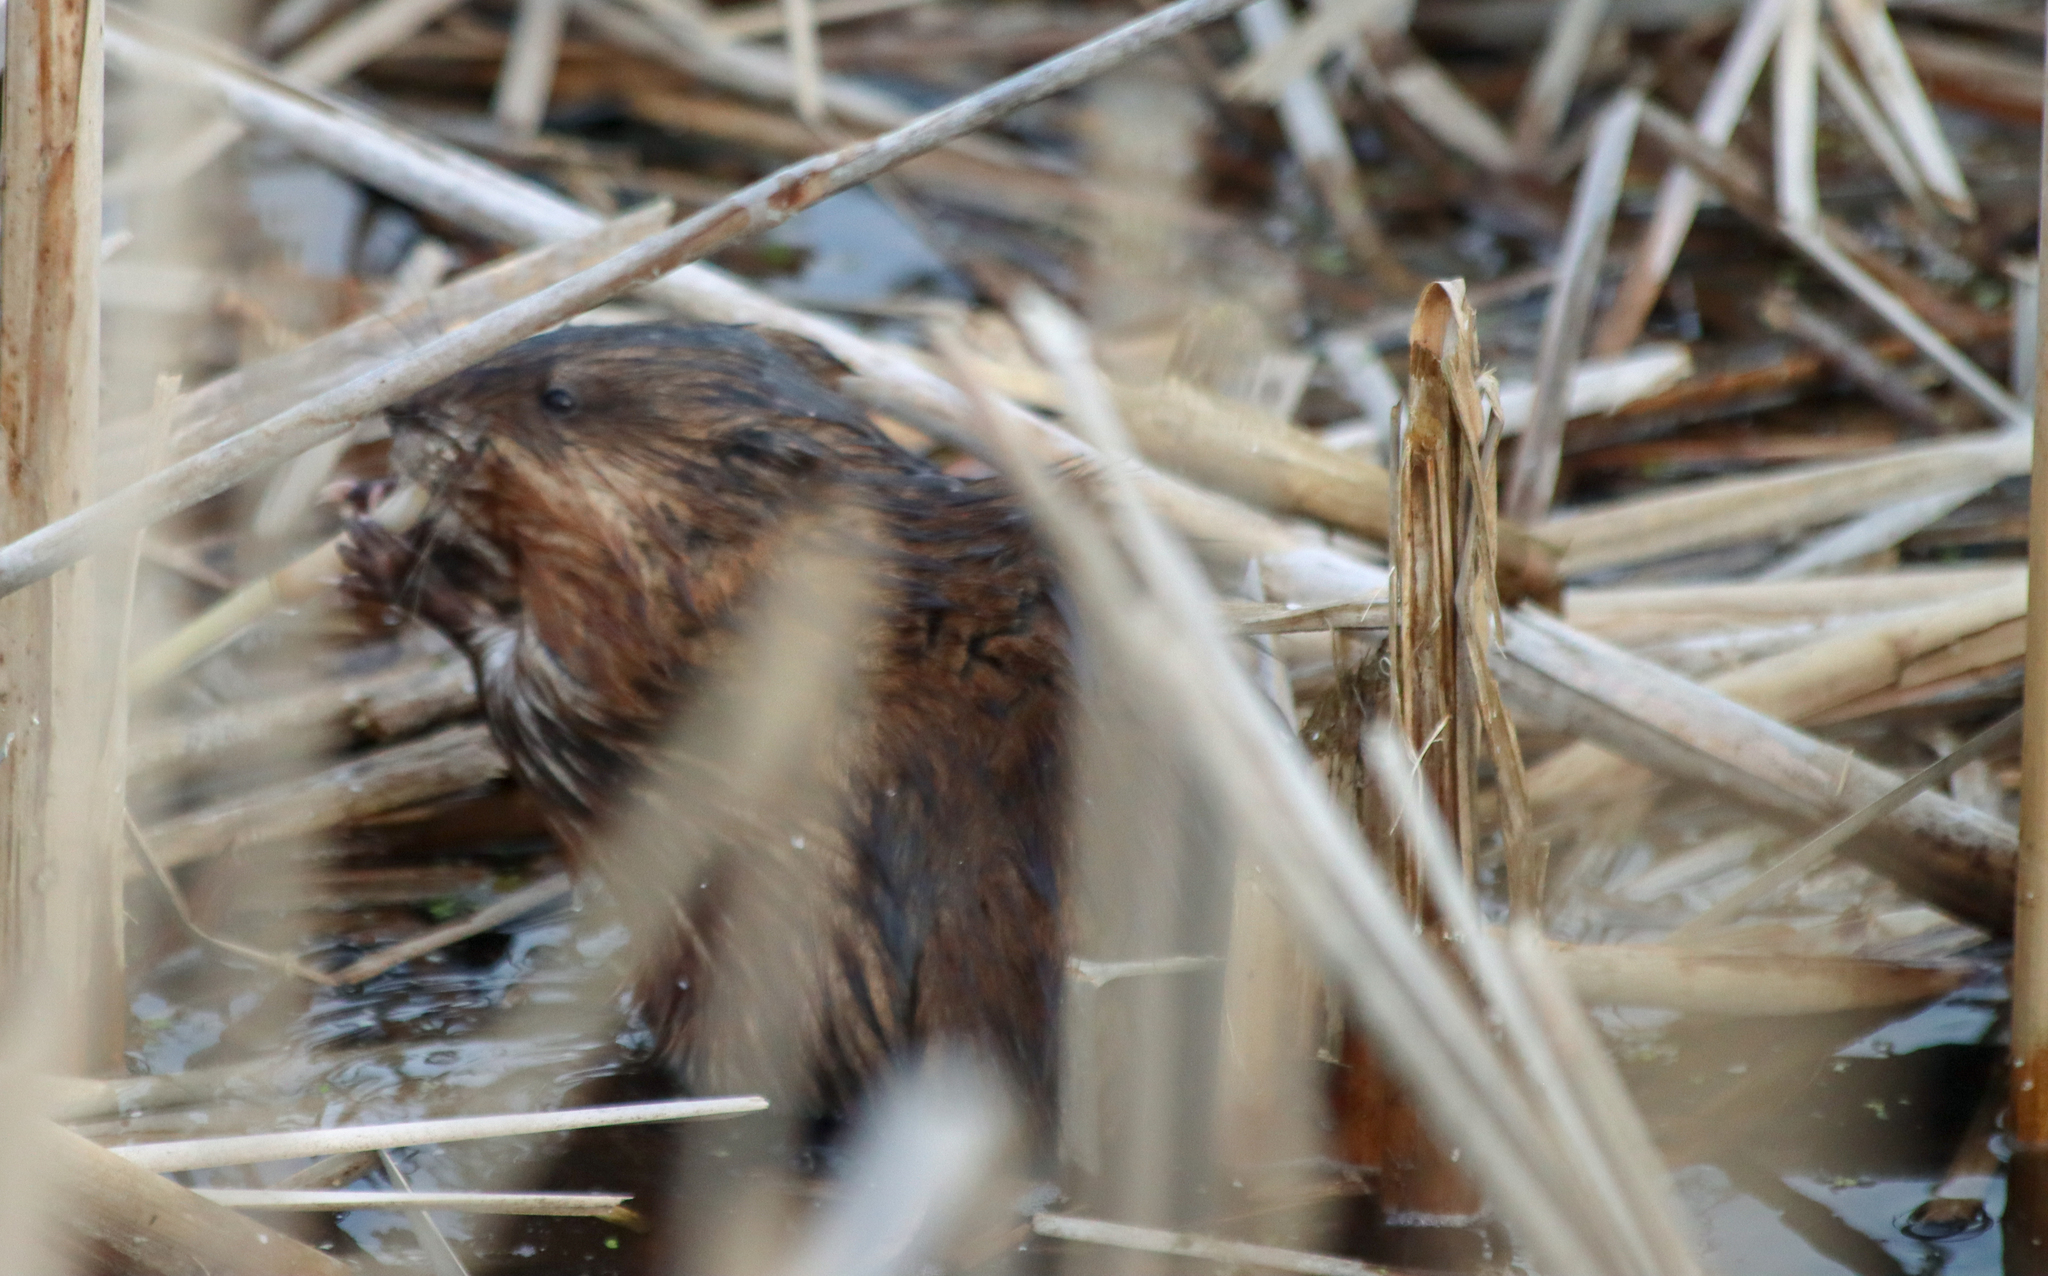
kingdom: Animalia
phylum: Chordata
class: Mammalia
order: Rodentia
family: Cricetidae
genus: Ondatra
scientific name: Ondatra zibethicus
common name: Muskrat
